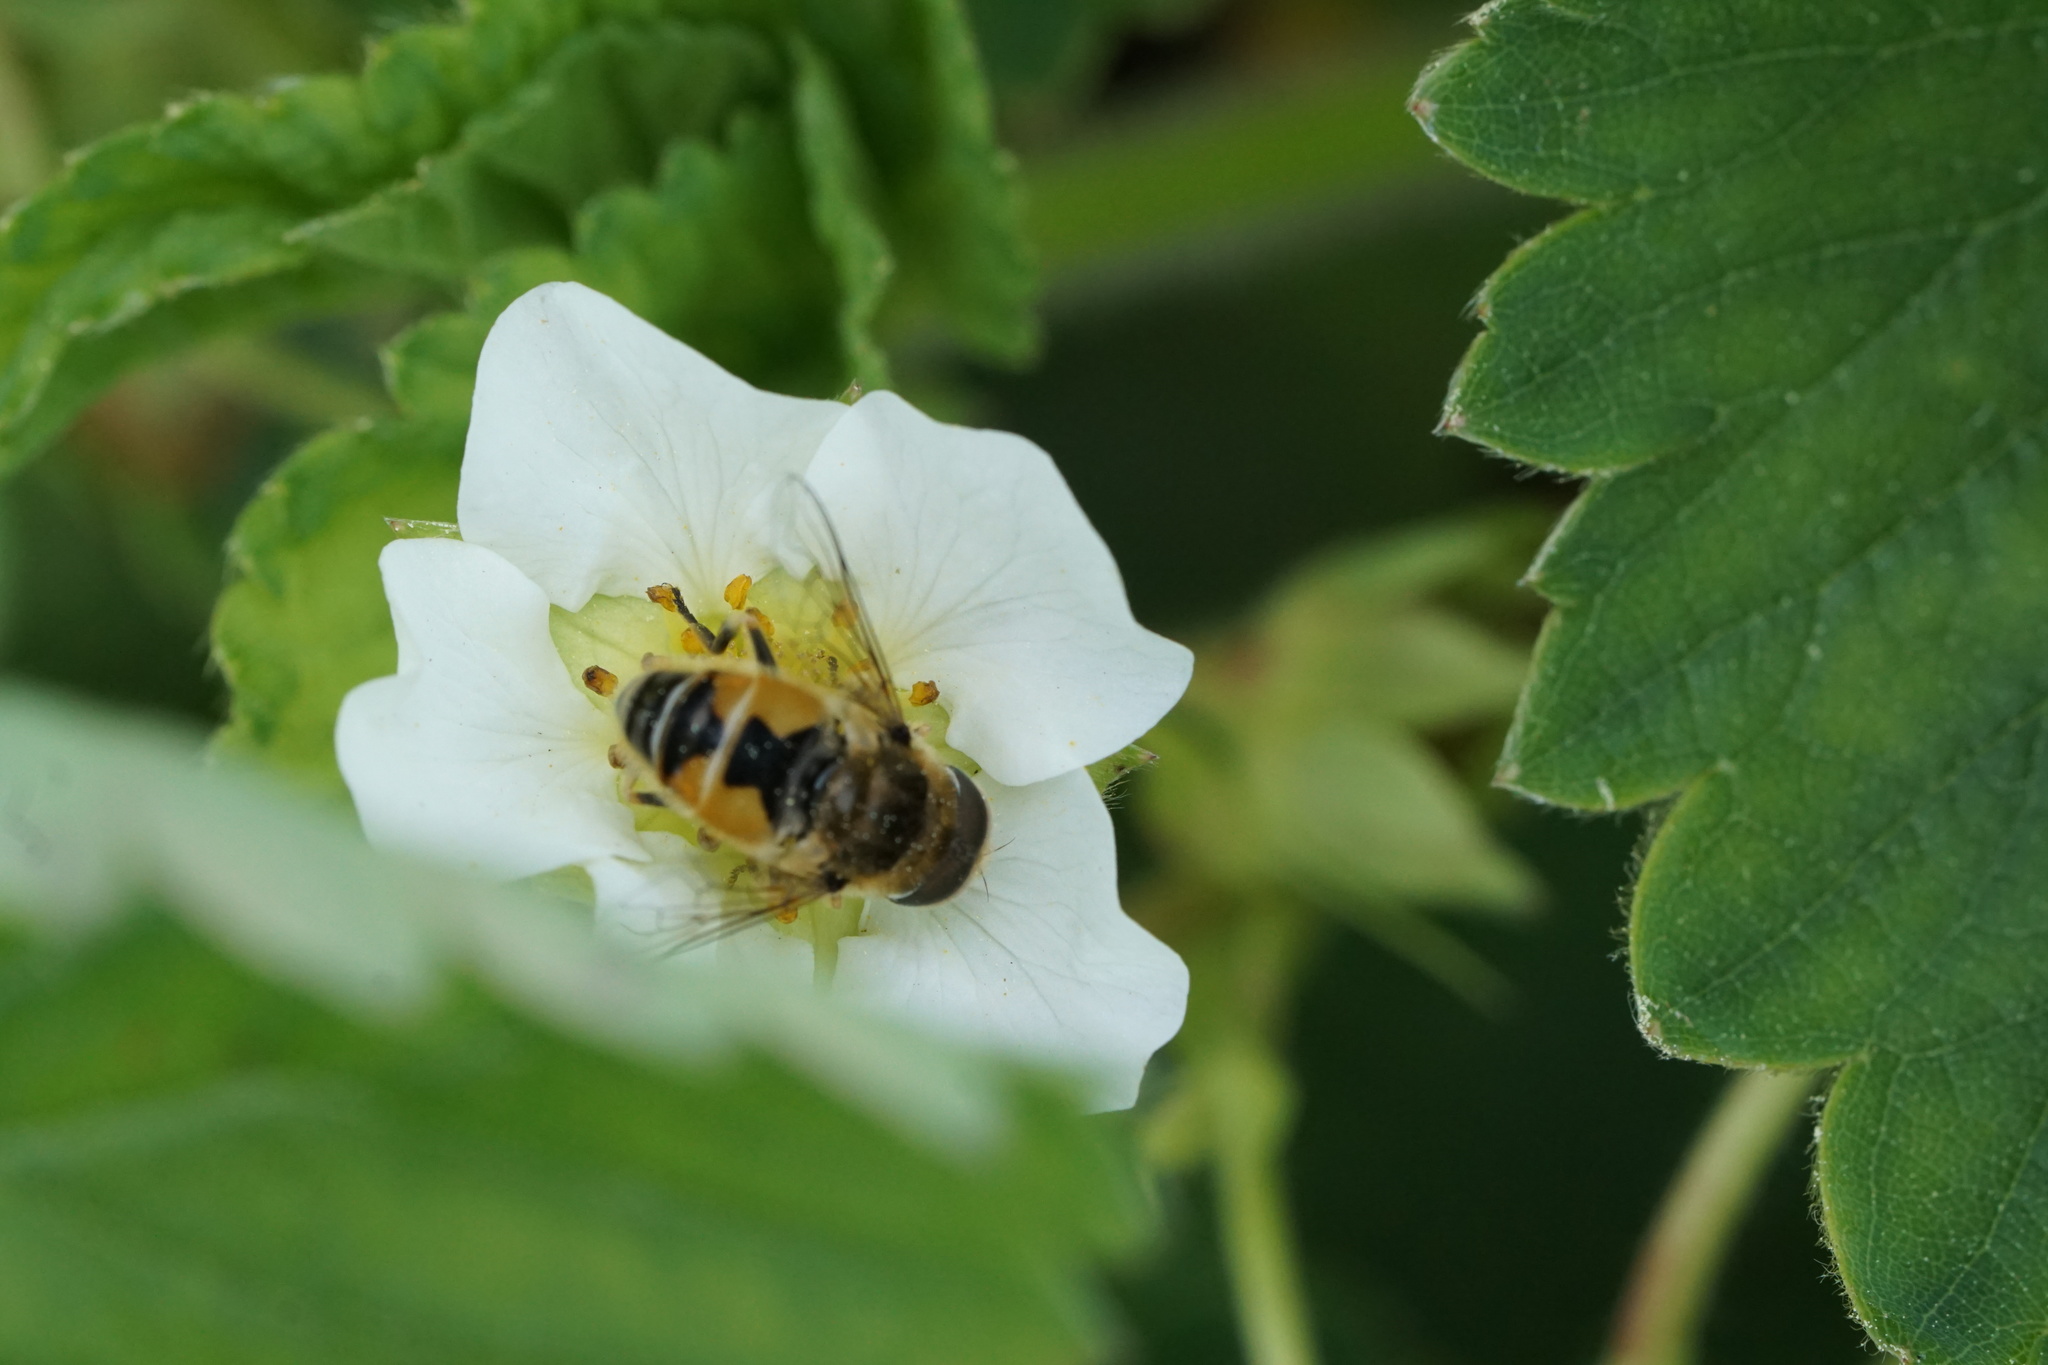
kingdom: Animalia
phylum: Arthropoda
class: Insecta
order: Diptera
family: Syrphidae
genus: Eristalis
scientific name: Eristalis arbustorum
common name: Hover fly
